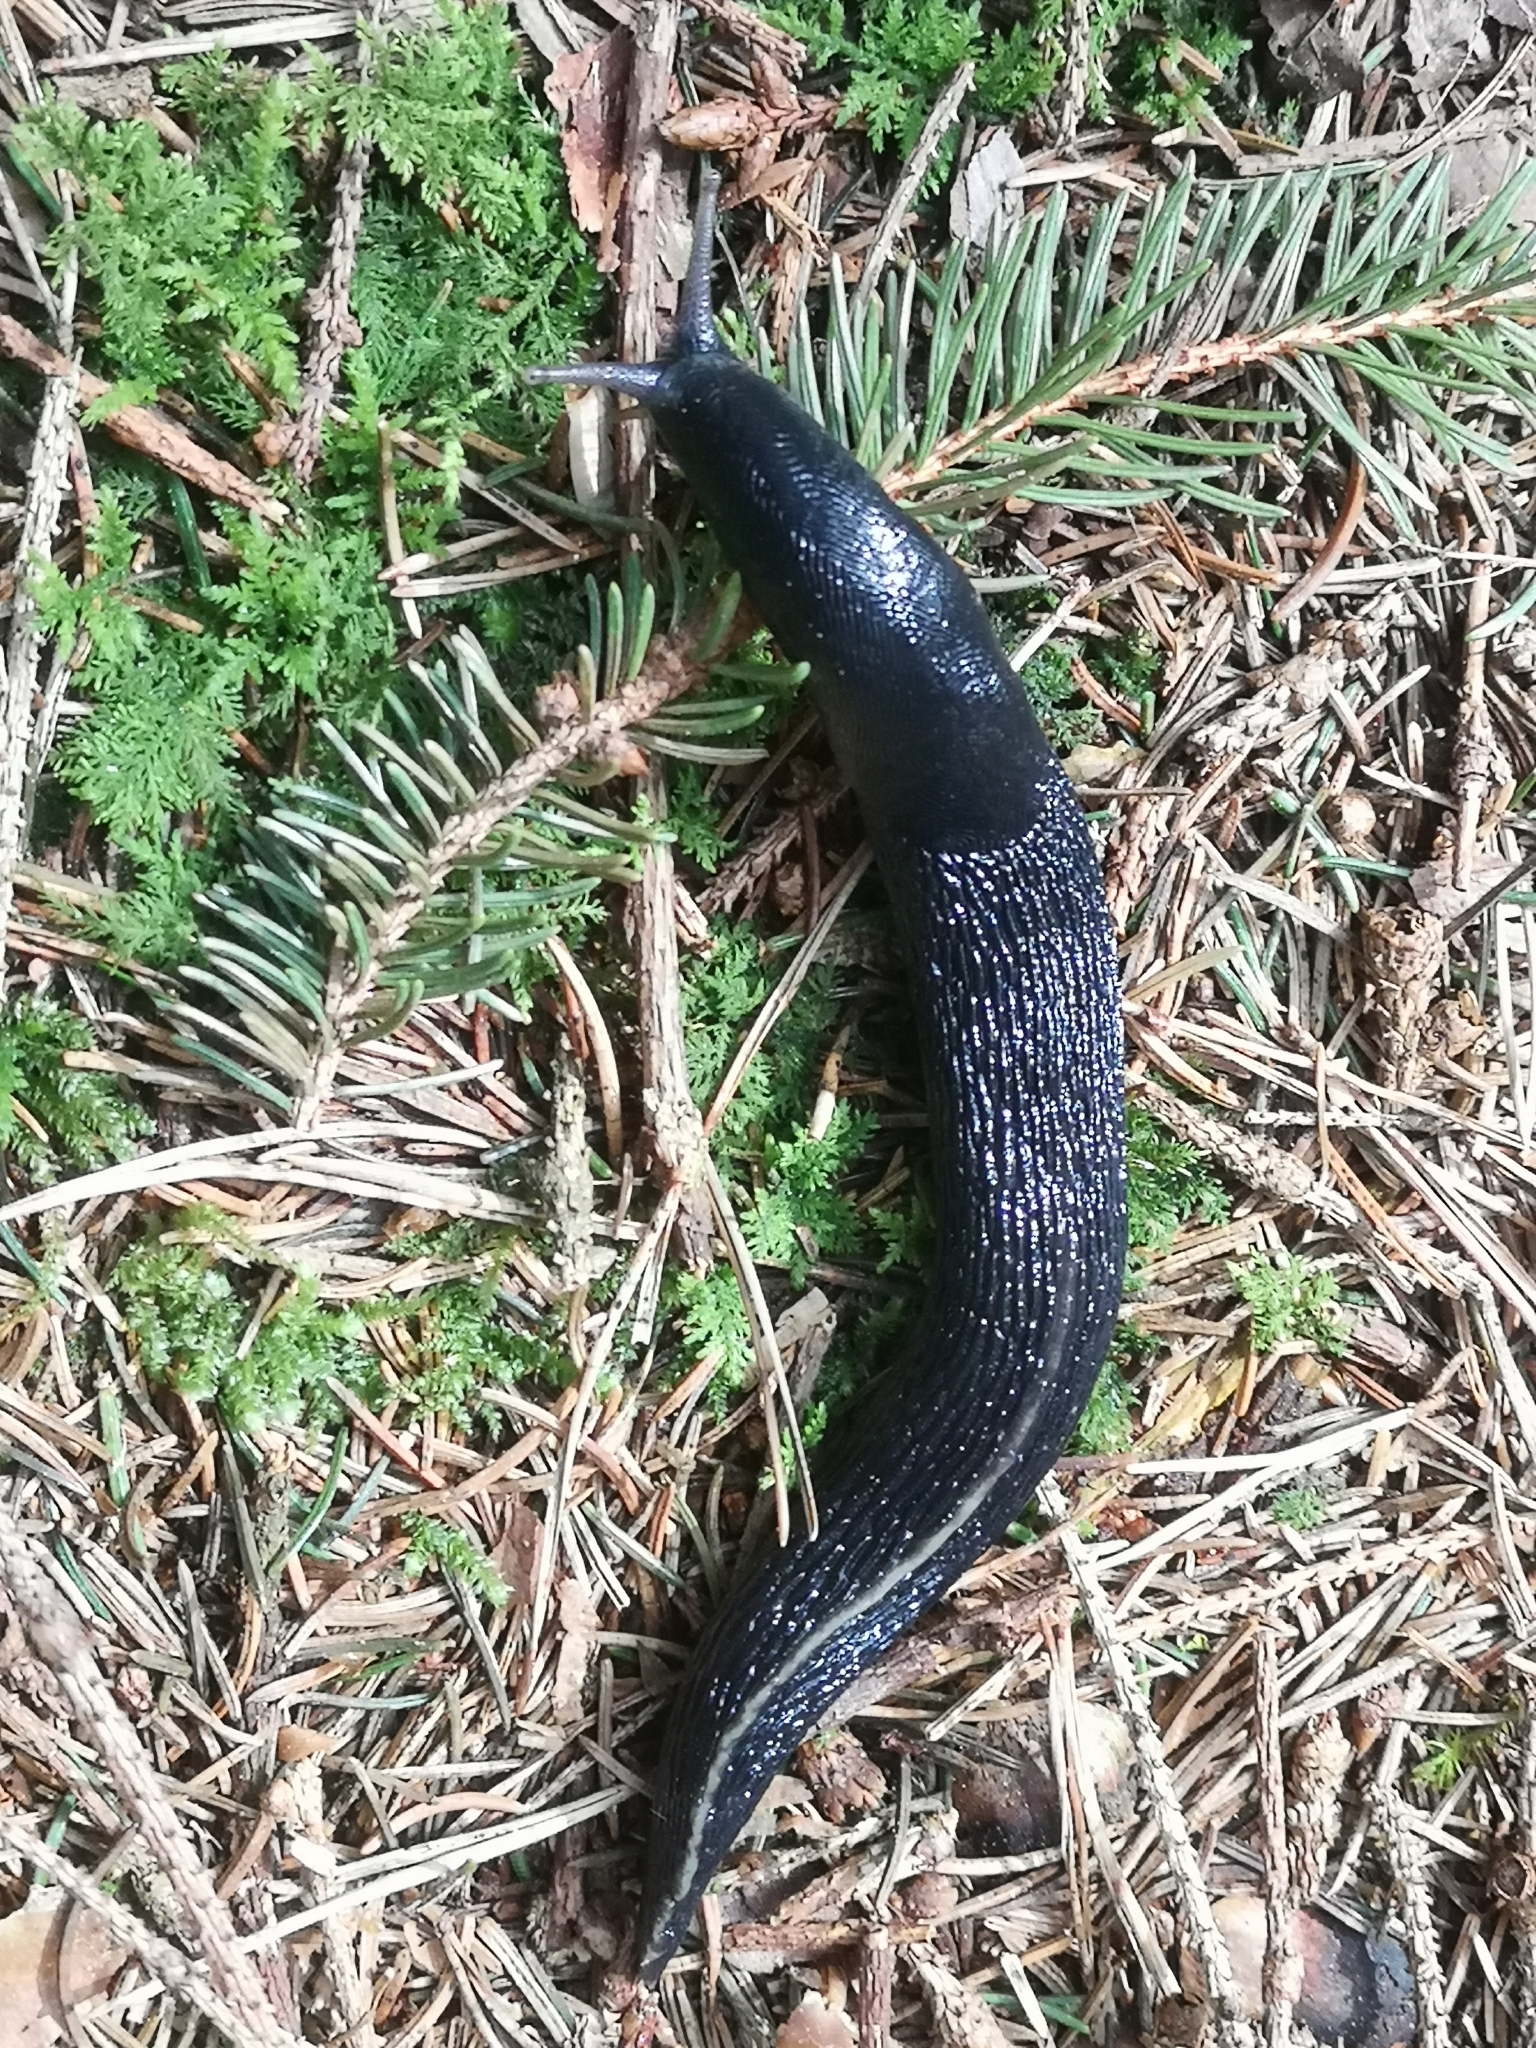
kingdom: Animalia
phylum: Mollusca
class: Gastropoda
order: Stylommatophora
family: Limacidae
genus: Limax
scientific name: Limax cinereoniger
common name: Ash-black slug
